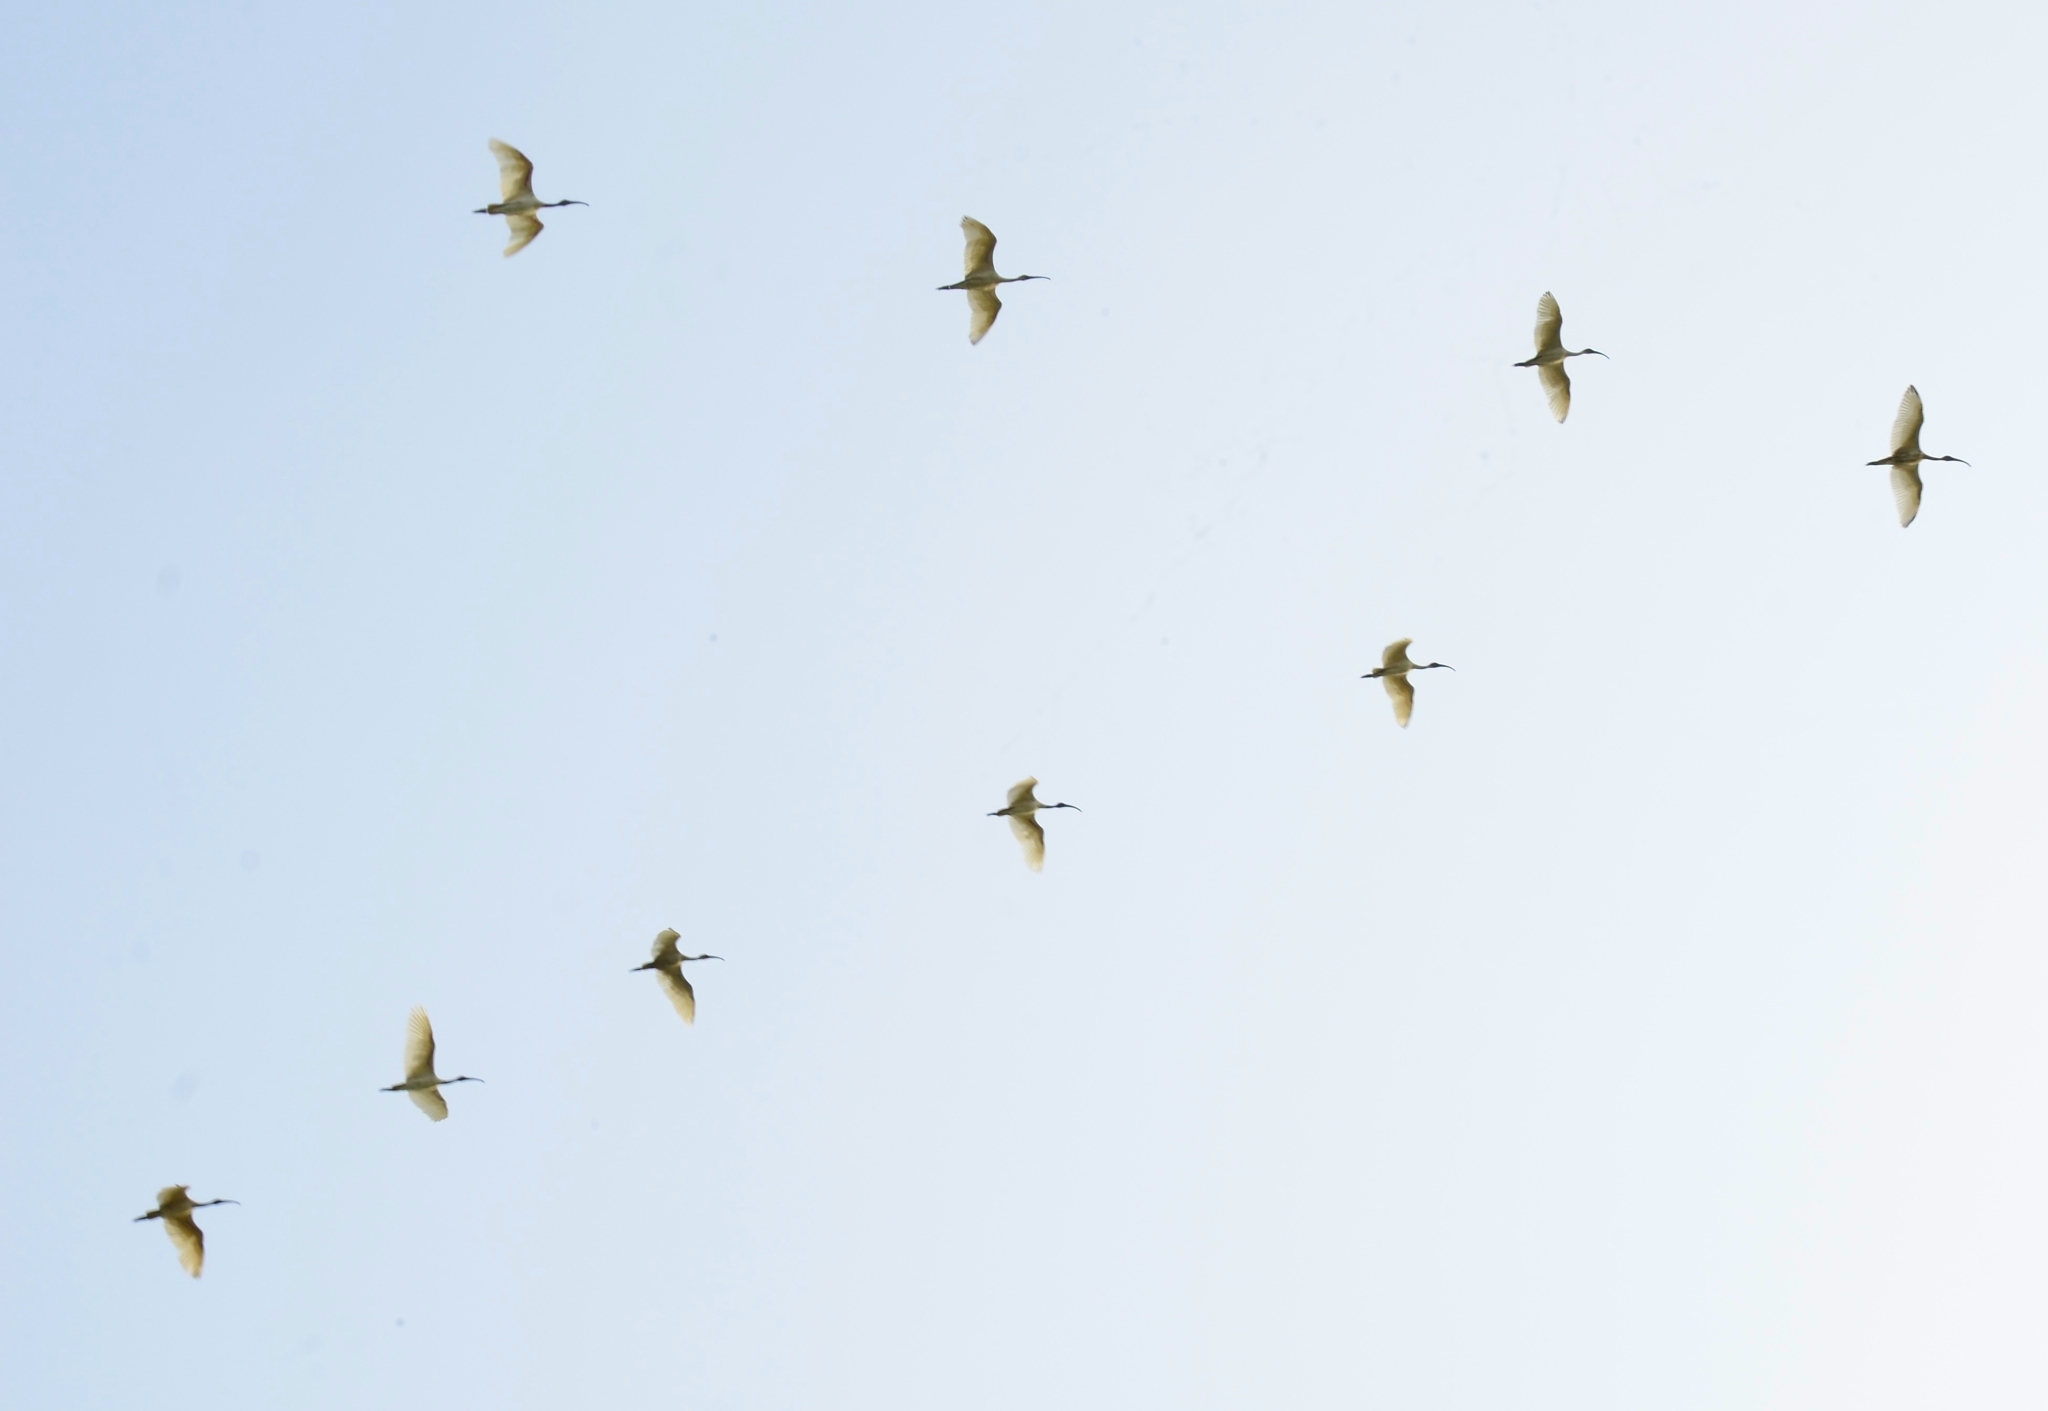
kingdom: Animalia
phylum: Chordata
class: Aves
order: Pelecaniformes
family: Threskiornithidae
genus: Threskiornis
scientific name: Threskiornis melanocephalus
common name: Black-headed ibis
